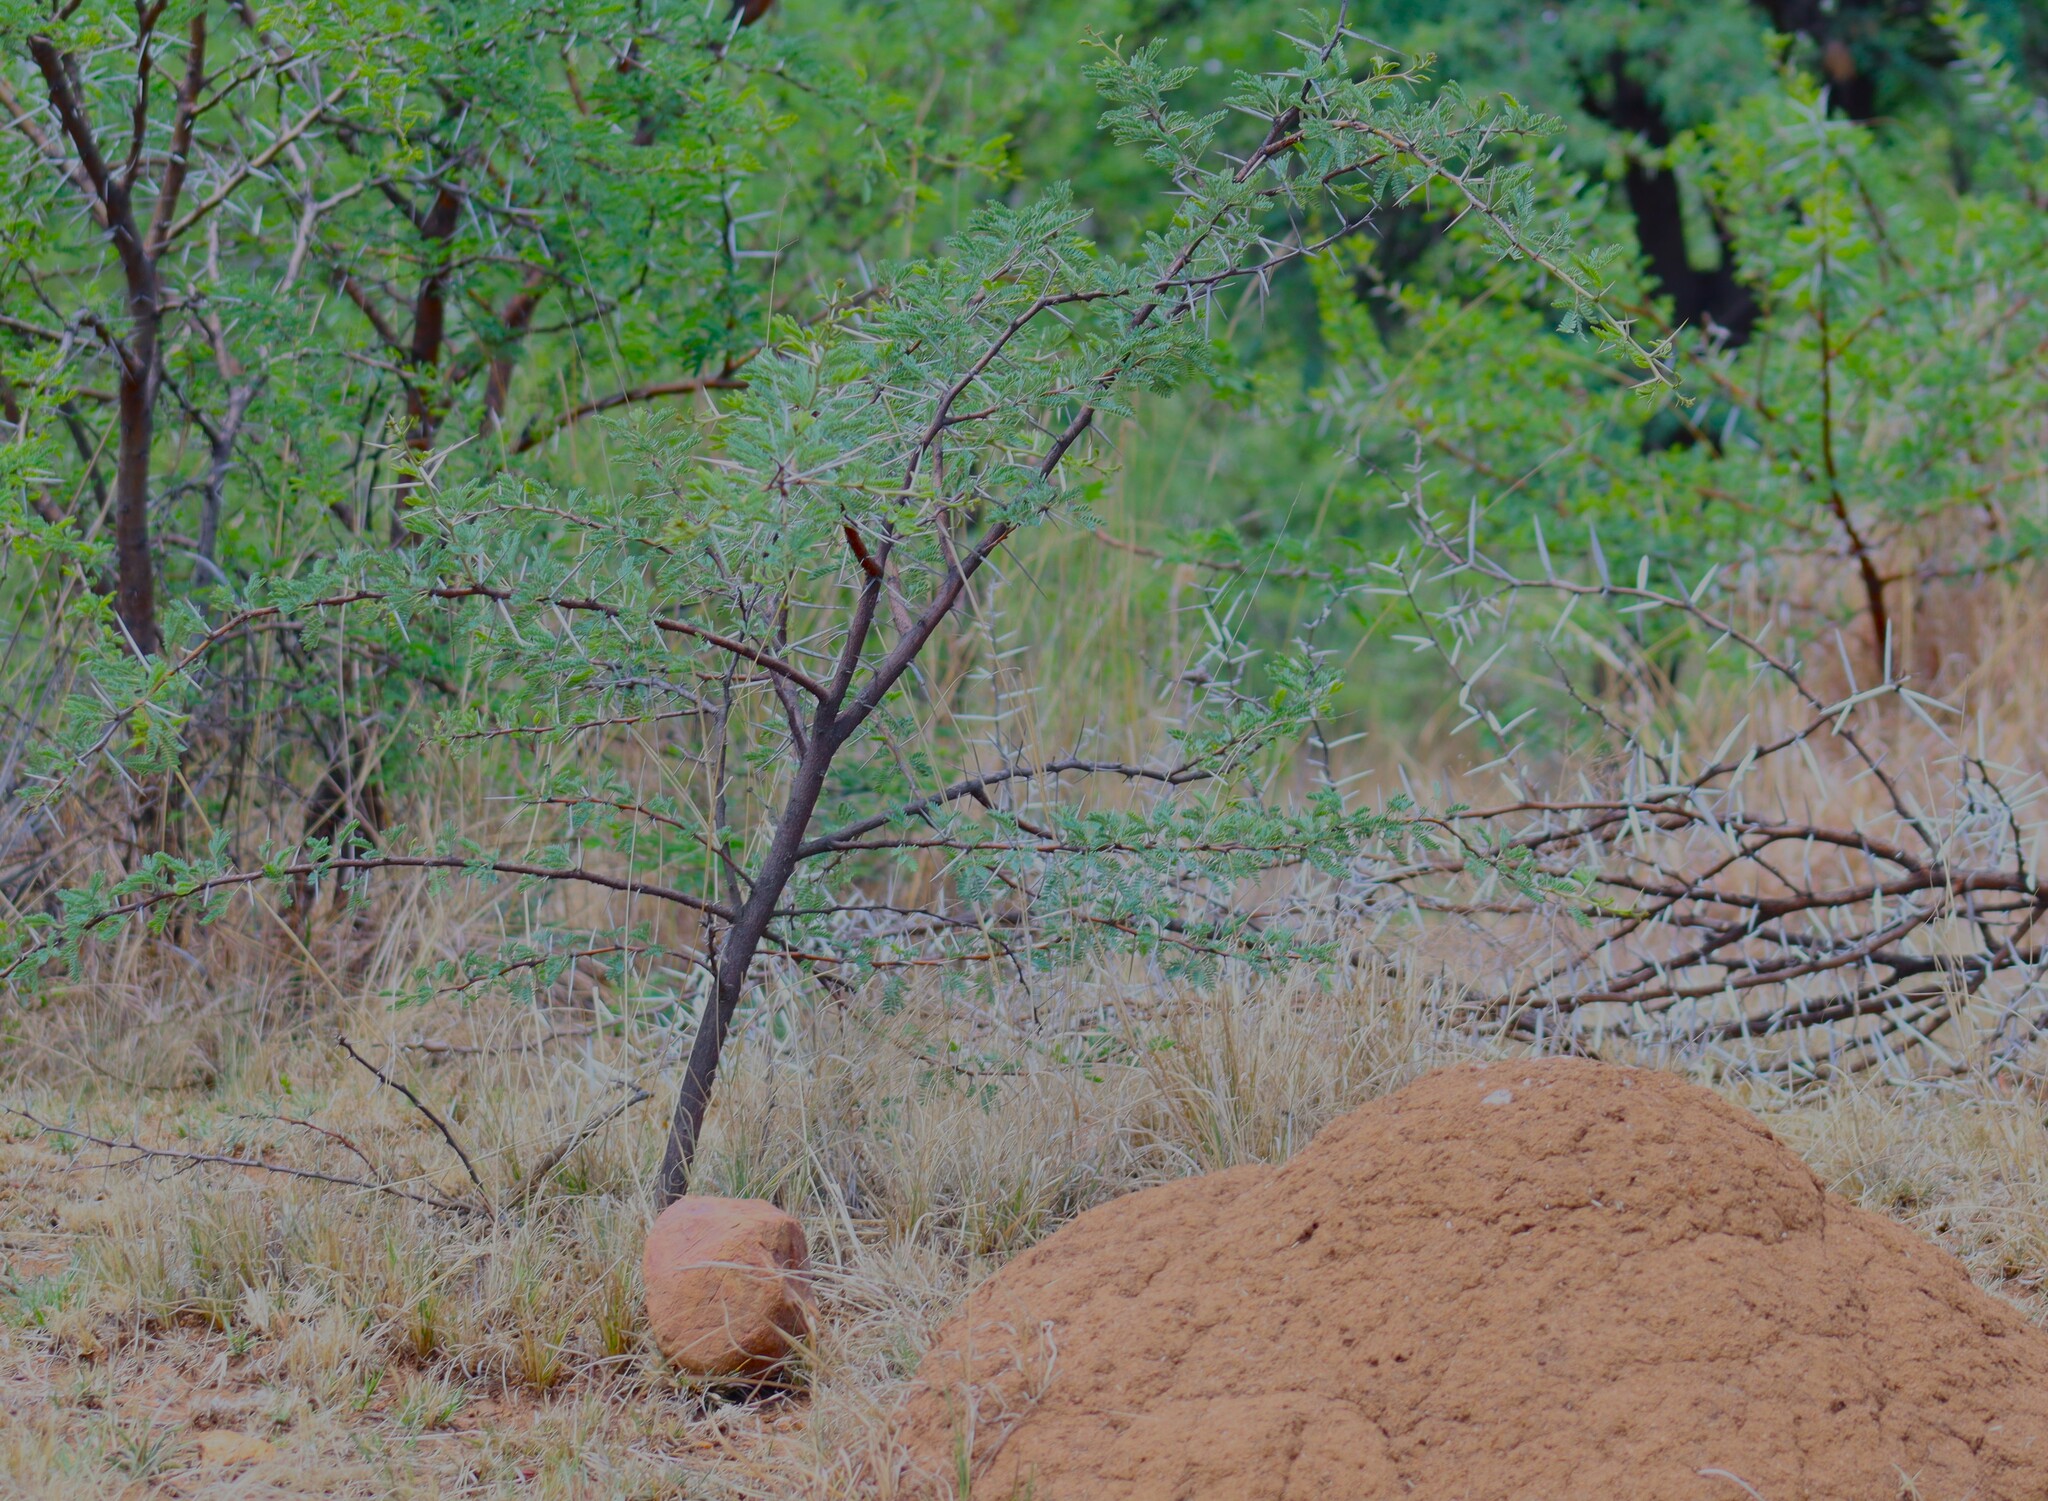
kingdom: Plantae
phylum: Tracheophyta
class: Magnoliopsida
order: Fabales
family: Fabaceae
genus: Vachellia
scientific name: Vachellia karroo
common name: Sweet thorn
